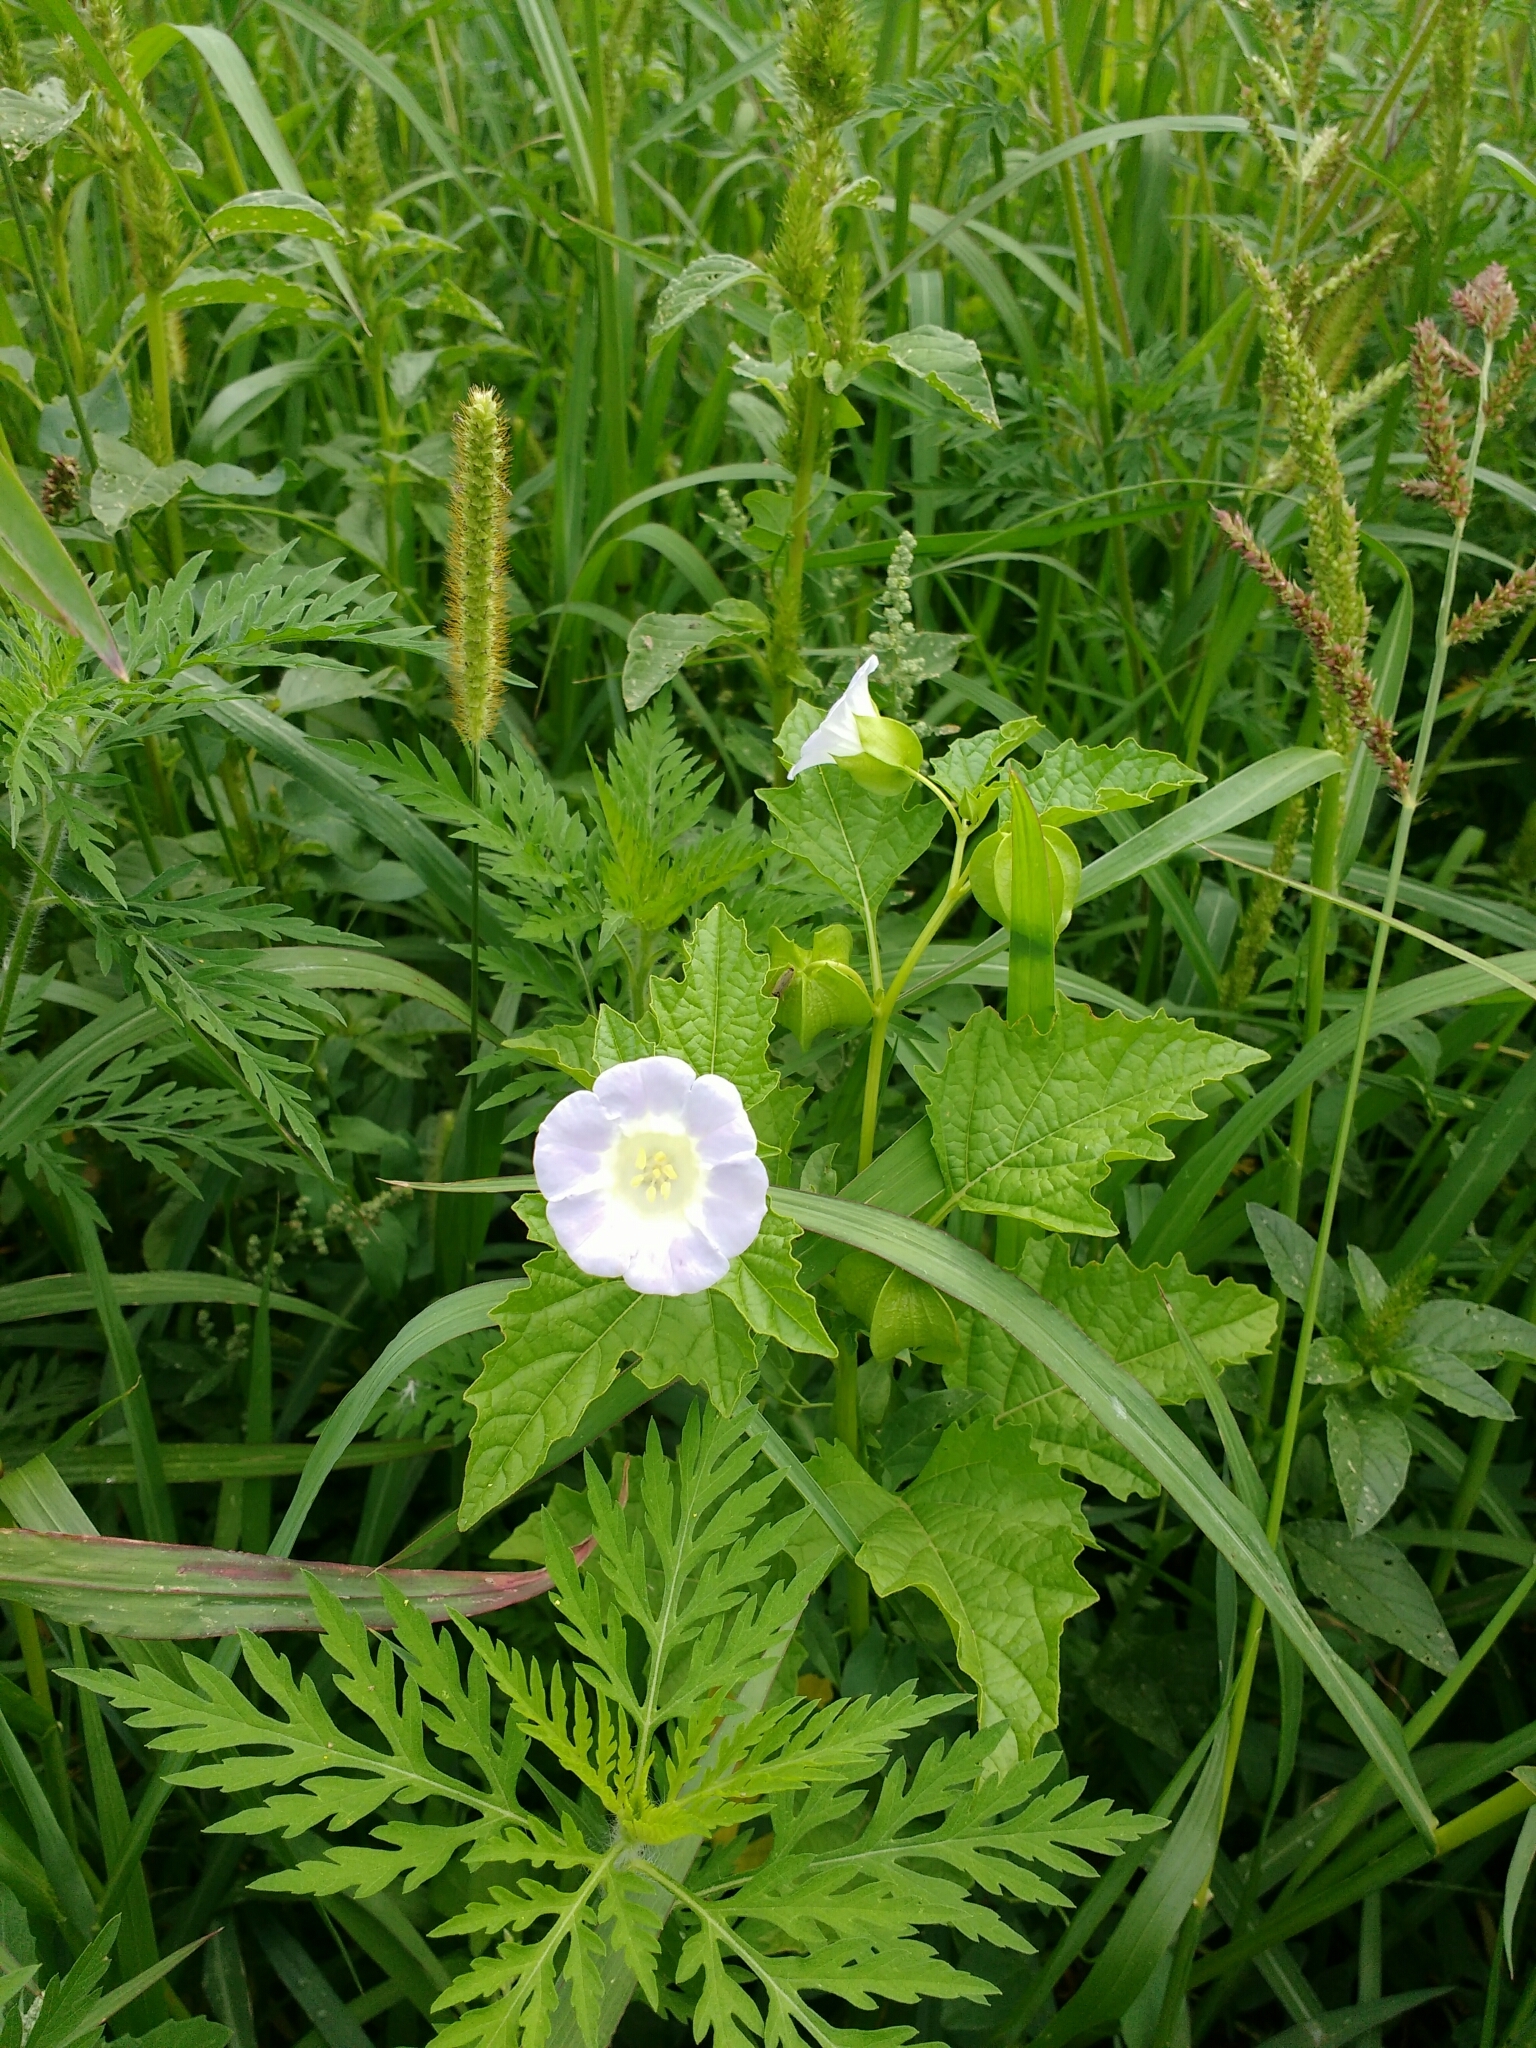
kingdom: Plantae
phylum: Tracheophyta
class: Magnoliopsida
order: Solanales
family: Solanaceae
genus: Nicandra
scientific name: Nicandra physalodes
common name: Apple-of-peru
